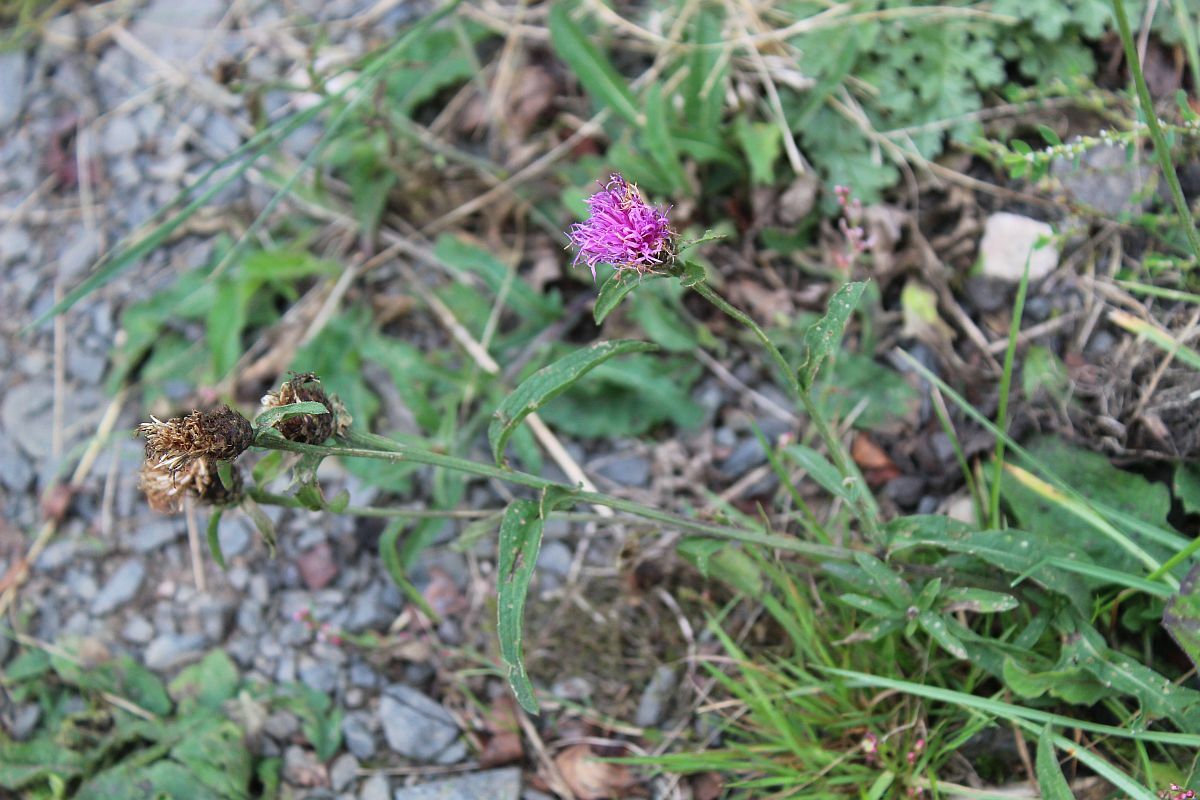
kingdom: Plantae
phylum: Tracheophyta
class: Magnoliopsida
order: Asterales
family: Asteraceae
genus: Centaurea
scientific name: Centaurea nigra
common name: Lesser knapweed
